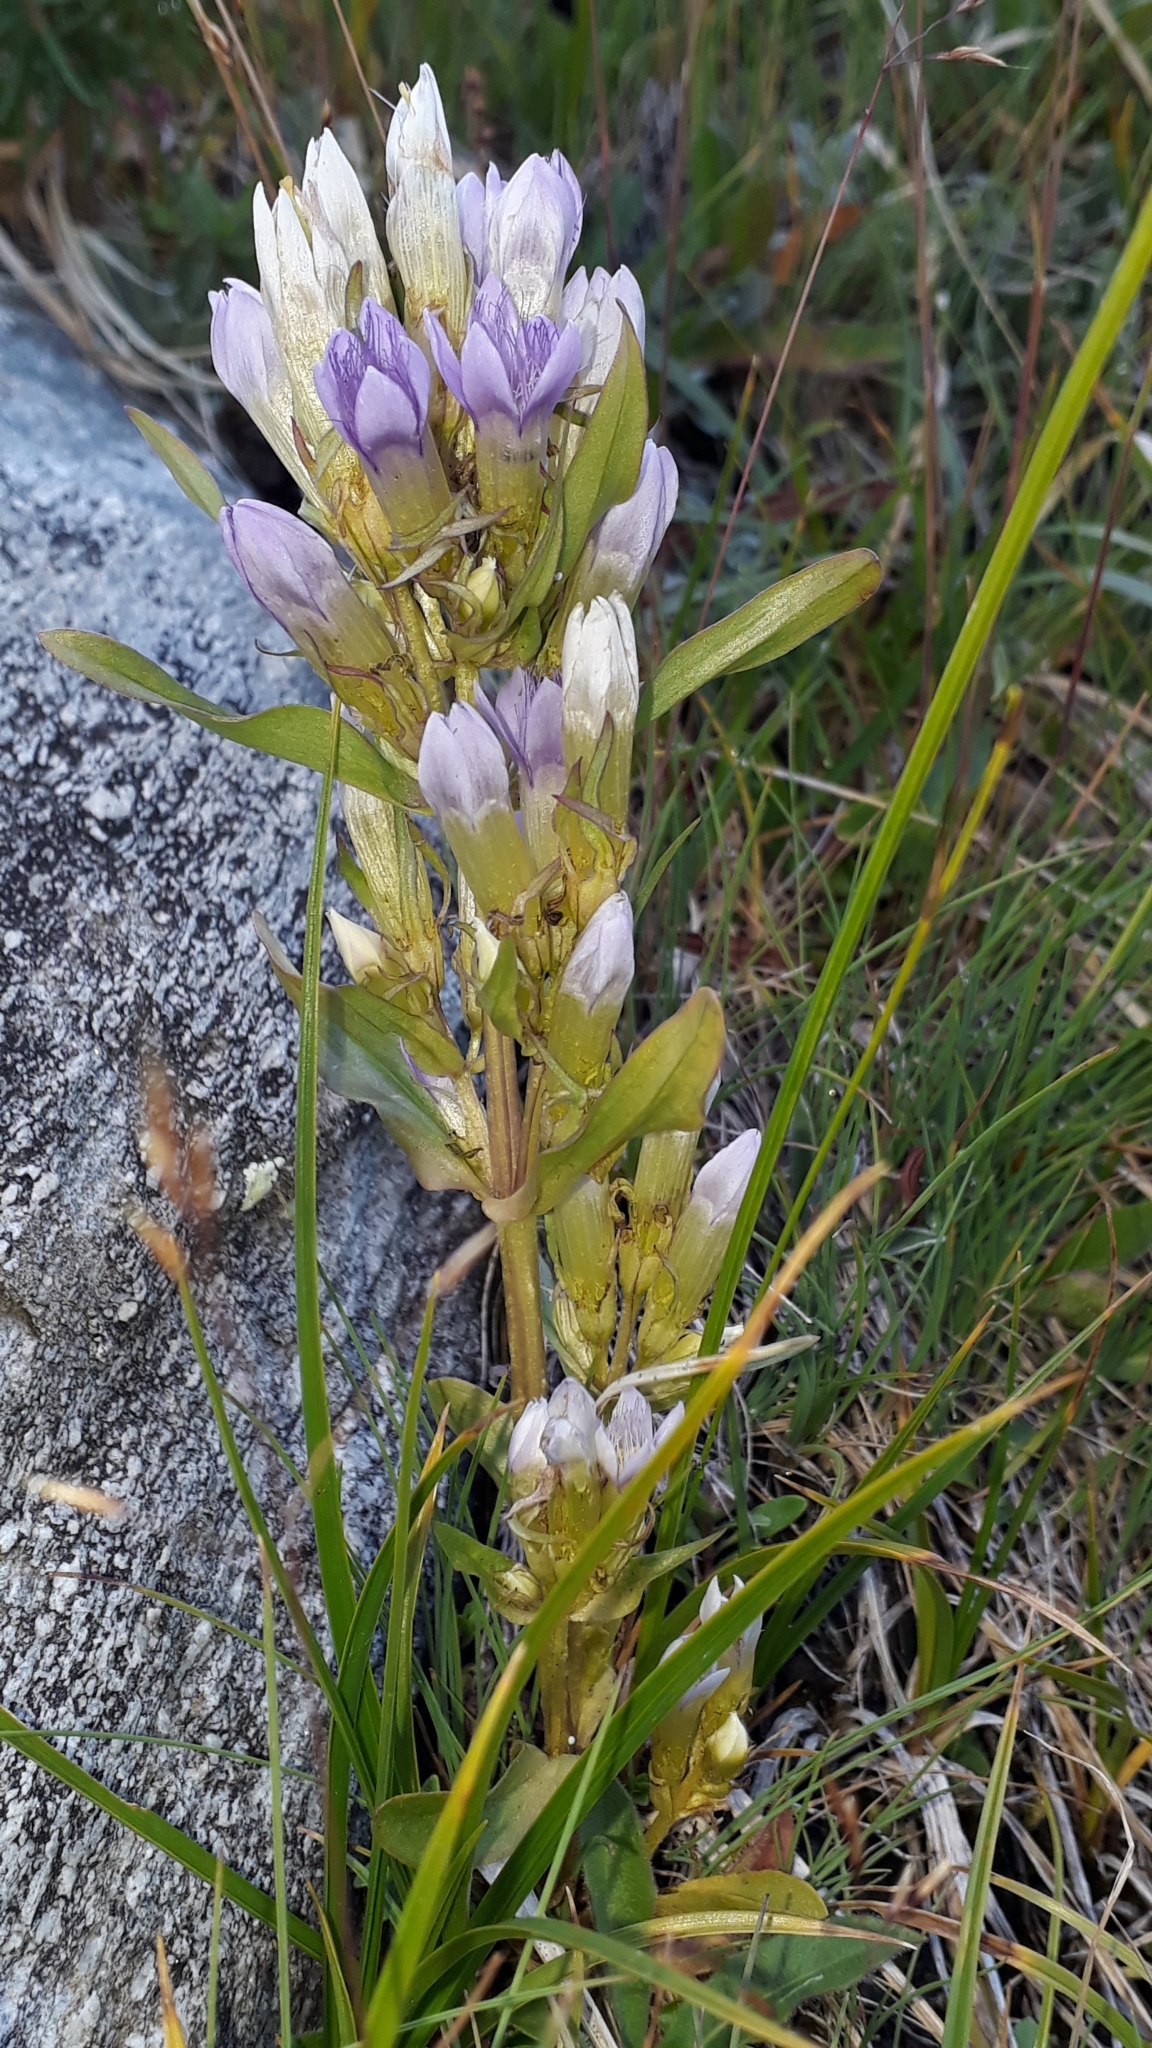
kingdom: Plantae
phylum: Tracheophyta
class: Magnoliopsida
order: Gentianales
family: Gentianaceae
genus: Gentianella
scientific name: Gentianella ramosa
